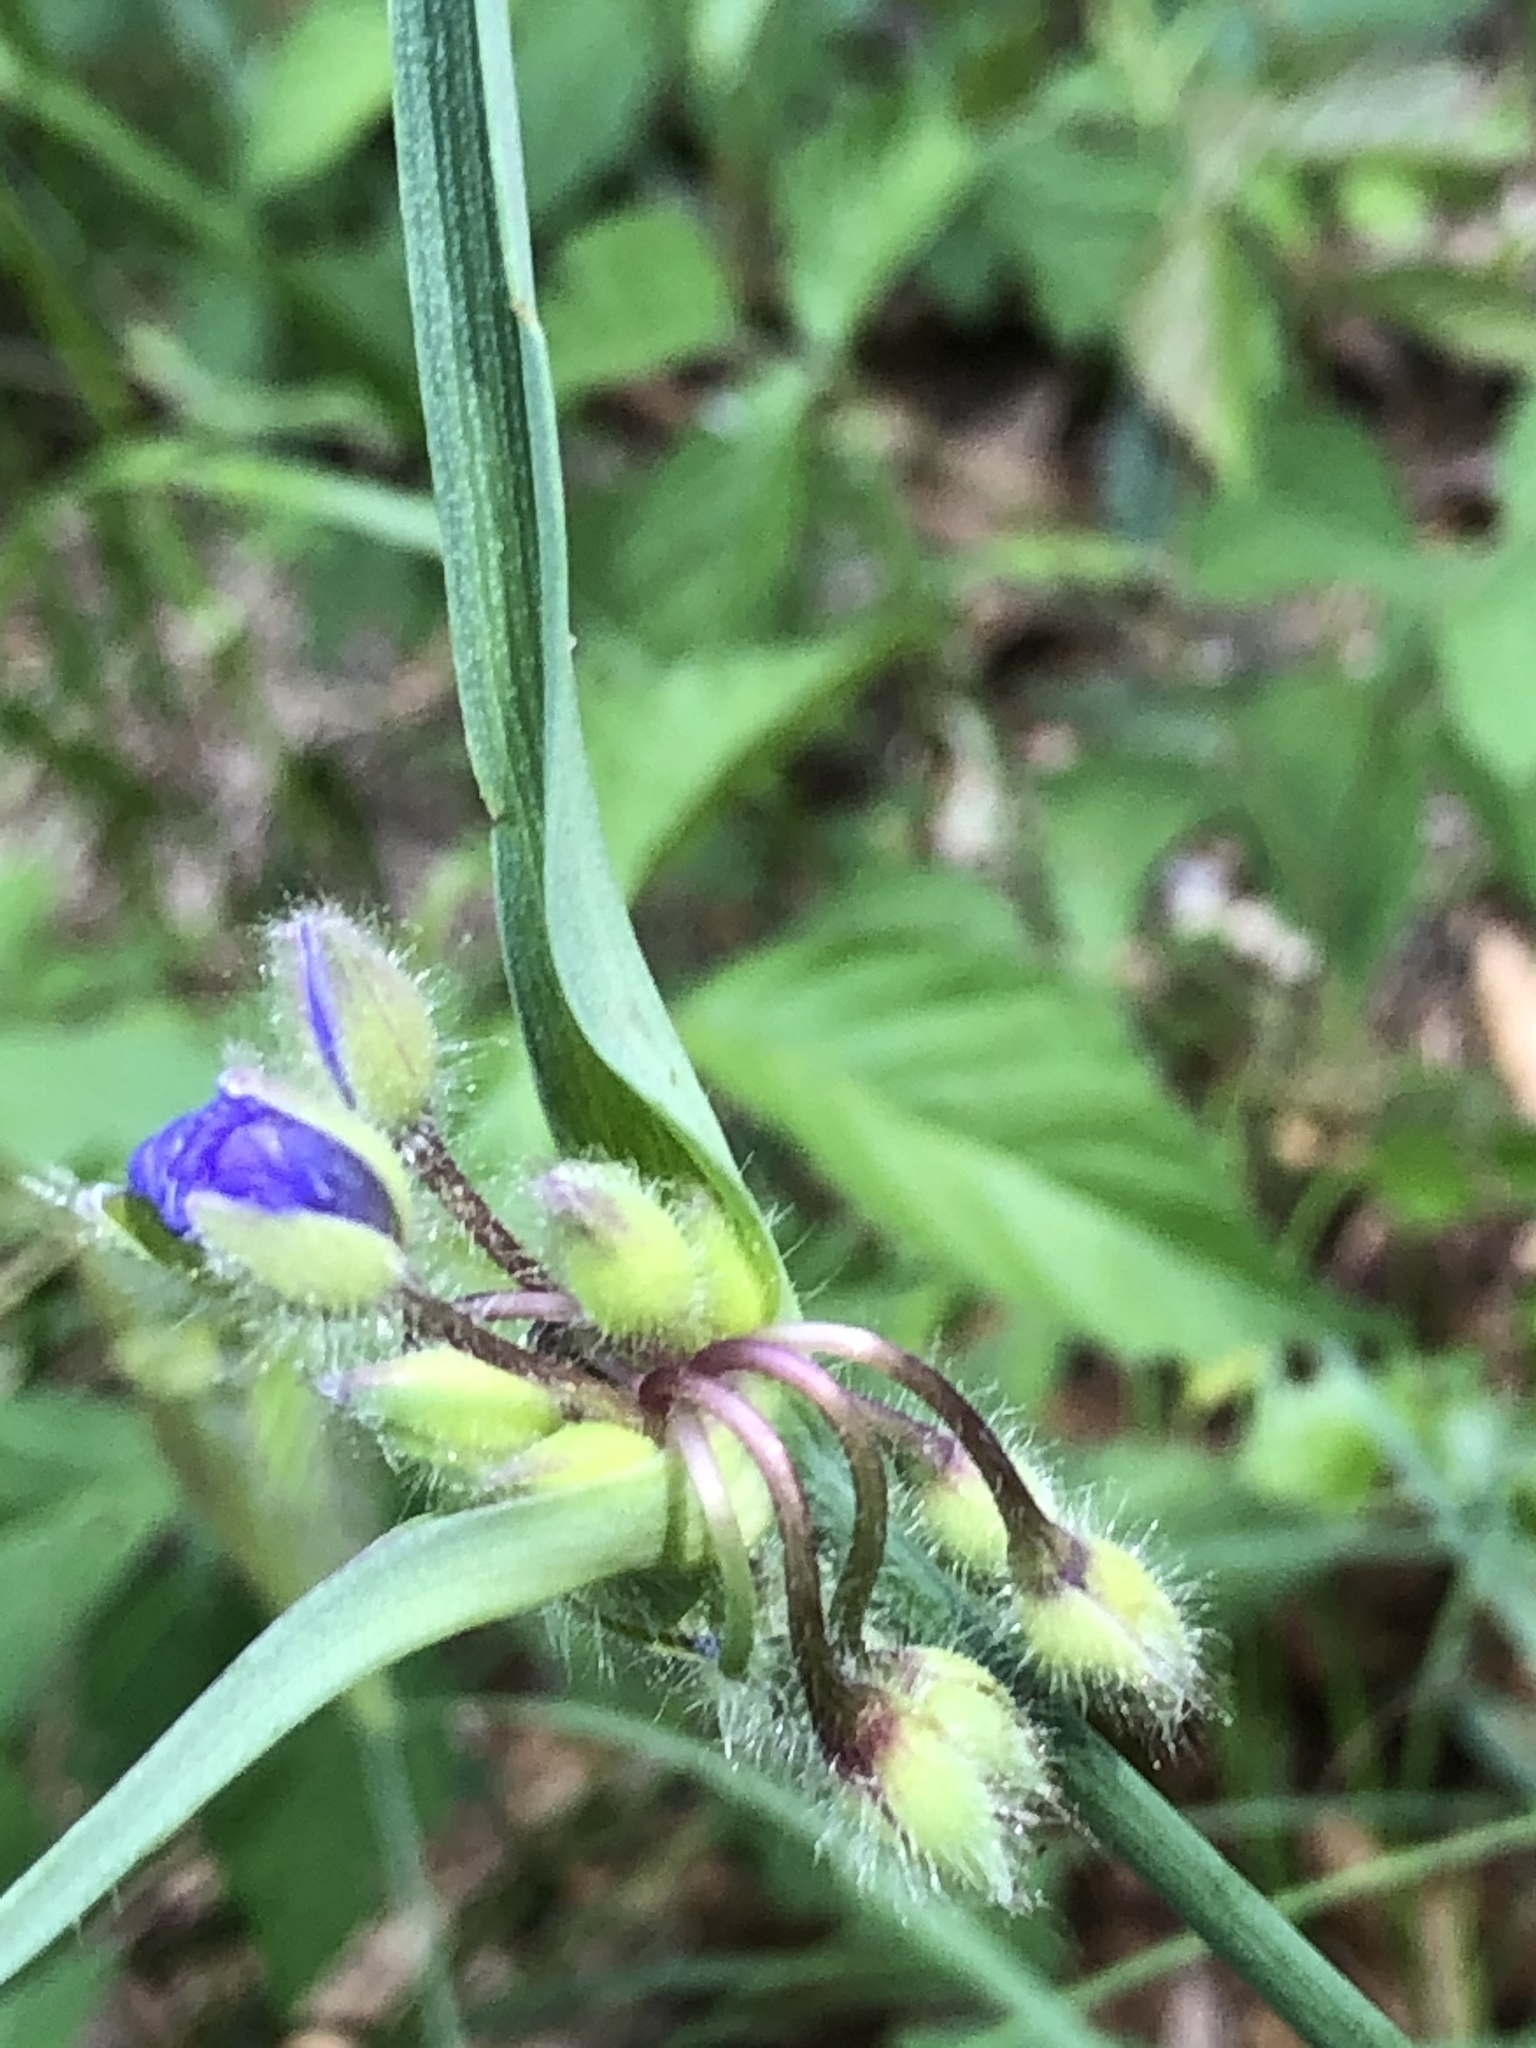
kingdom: Plantae
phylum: Tracheophyta
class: Liliopsida
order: Commelinales
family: Commelinaceae
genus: Tradescantia
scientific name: Tradescantia hirsutiflora
